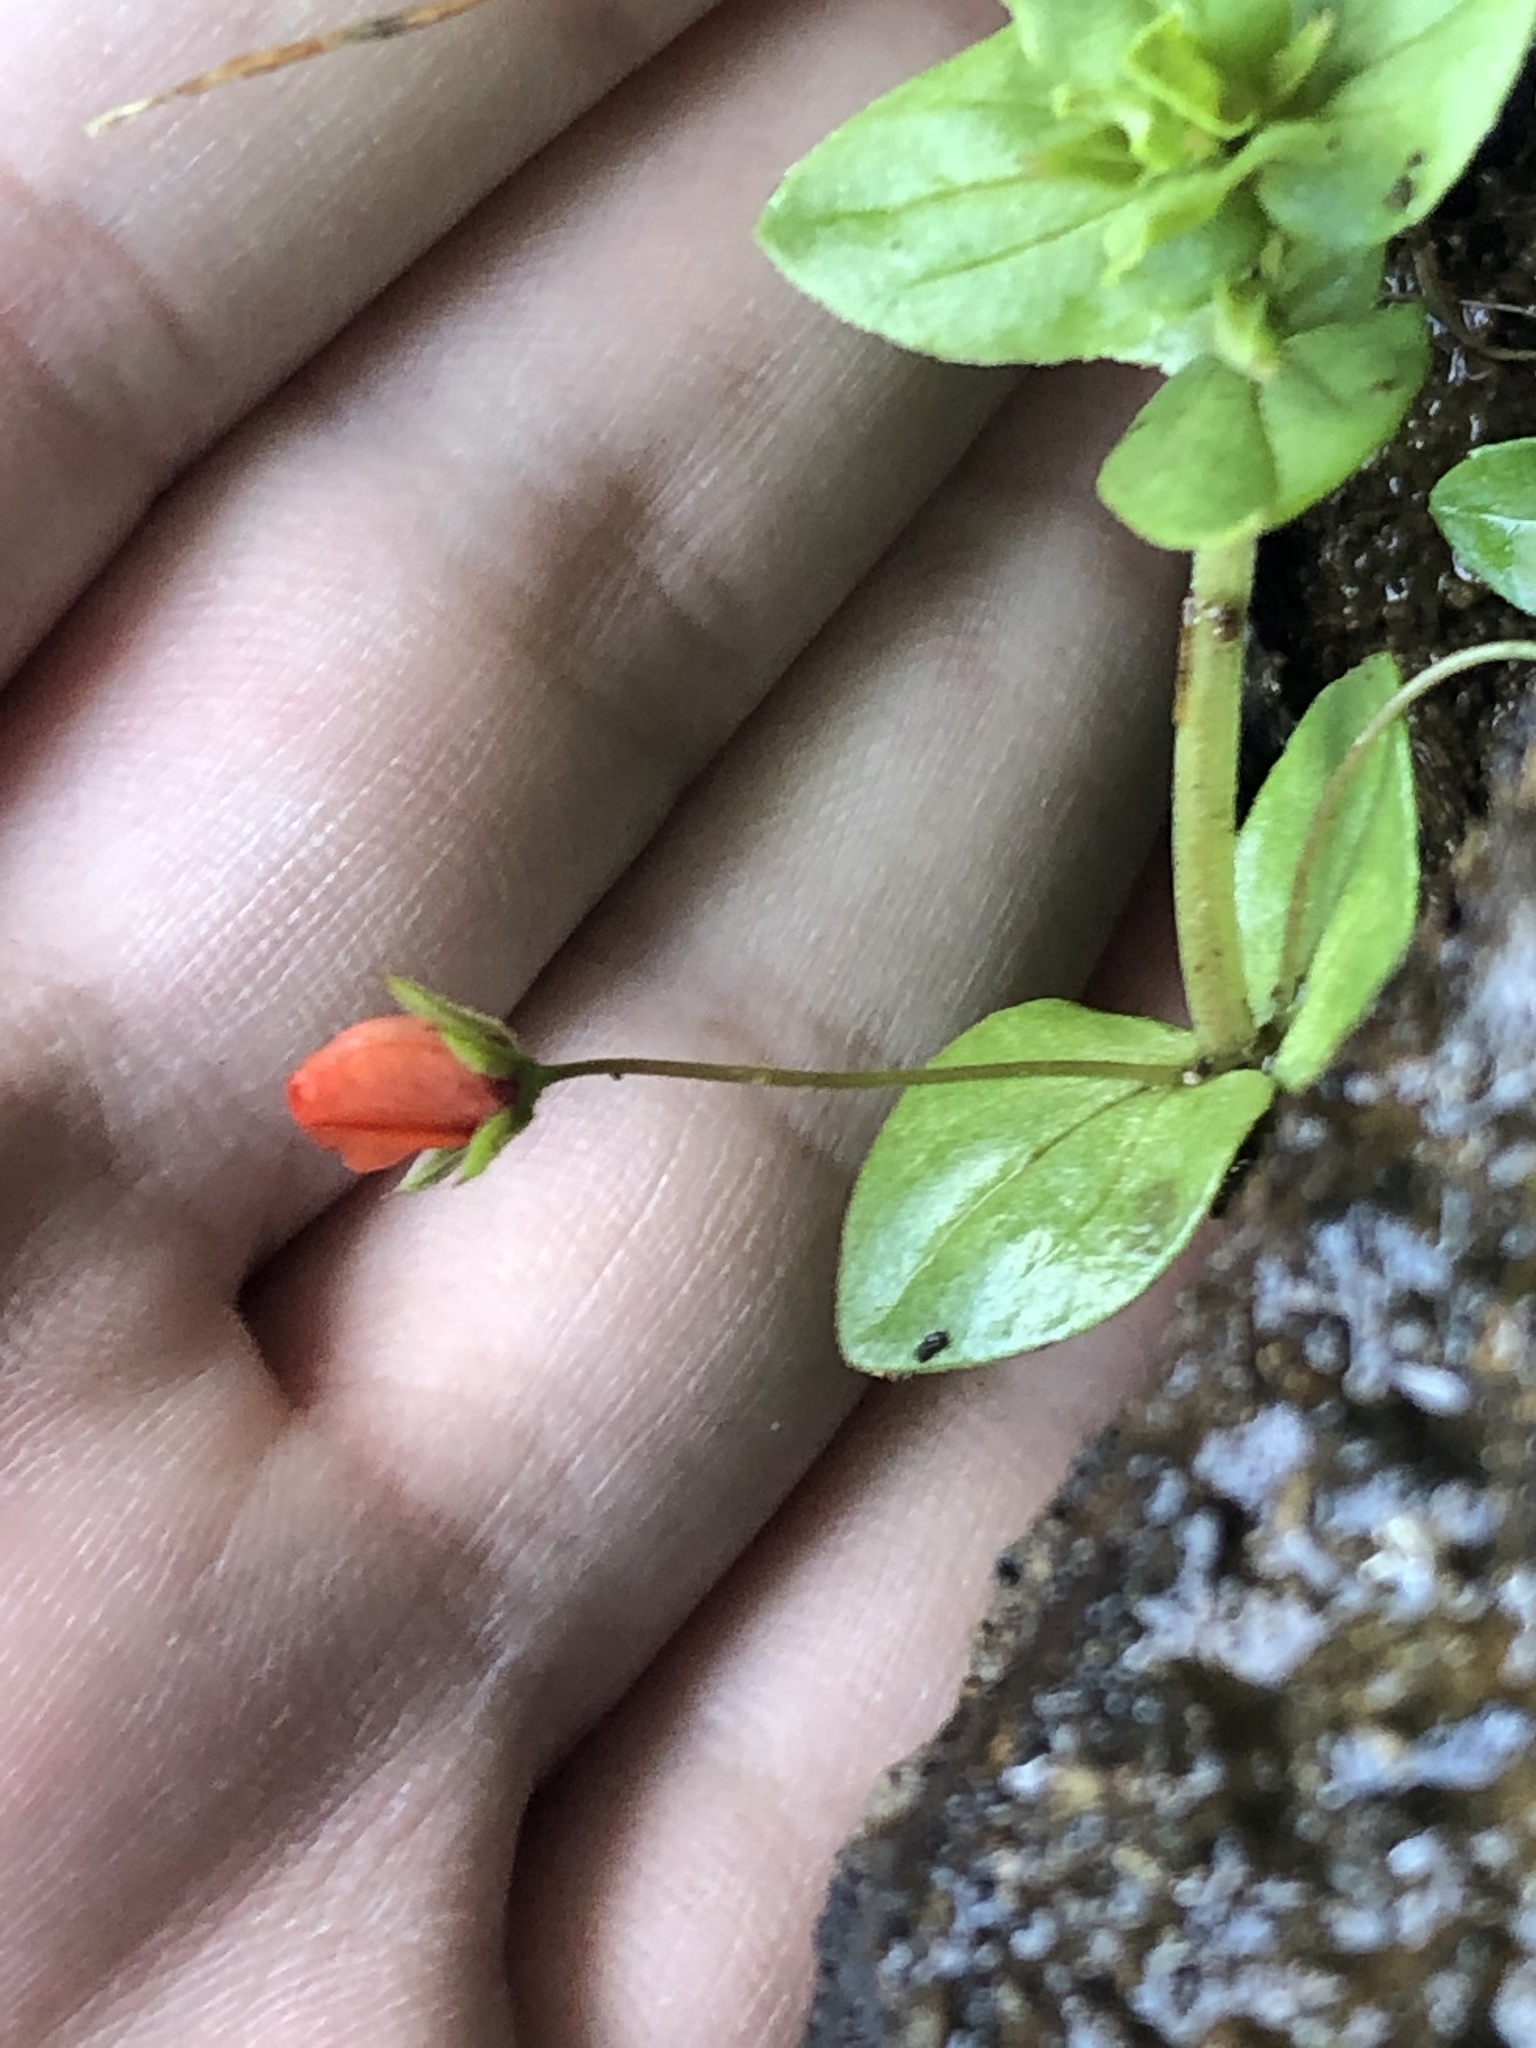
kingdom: Plantae
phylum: Tracheophyta
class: Magnoliopsida
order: Ericales
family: Primulaceae
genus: Lysimachia
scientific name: Lysimachia arvensis
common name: Scarlet pimpernel
